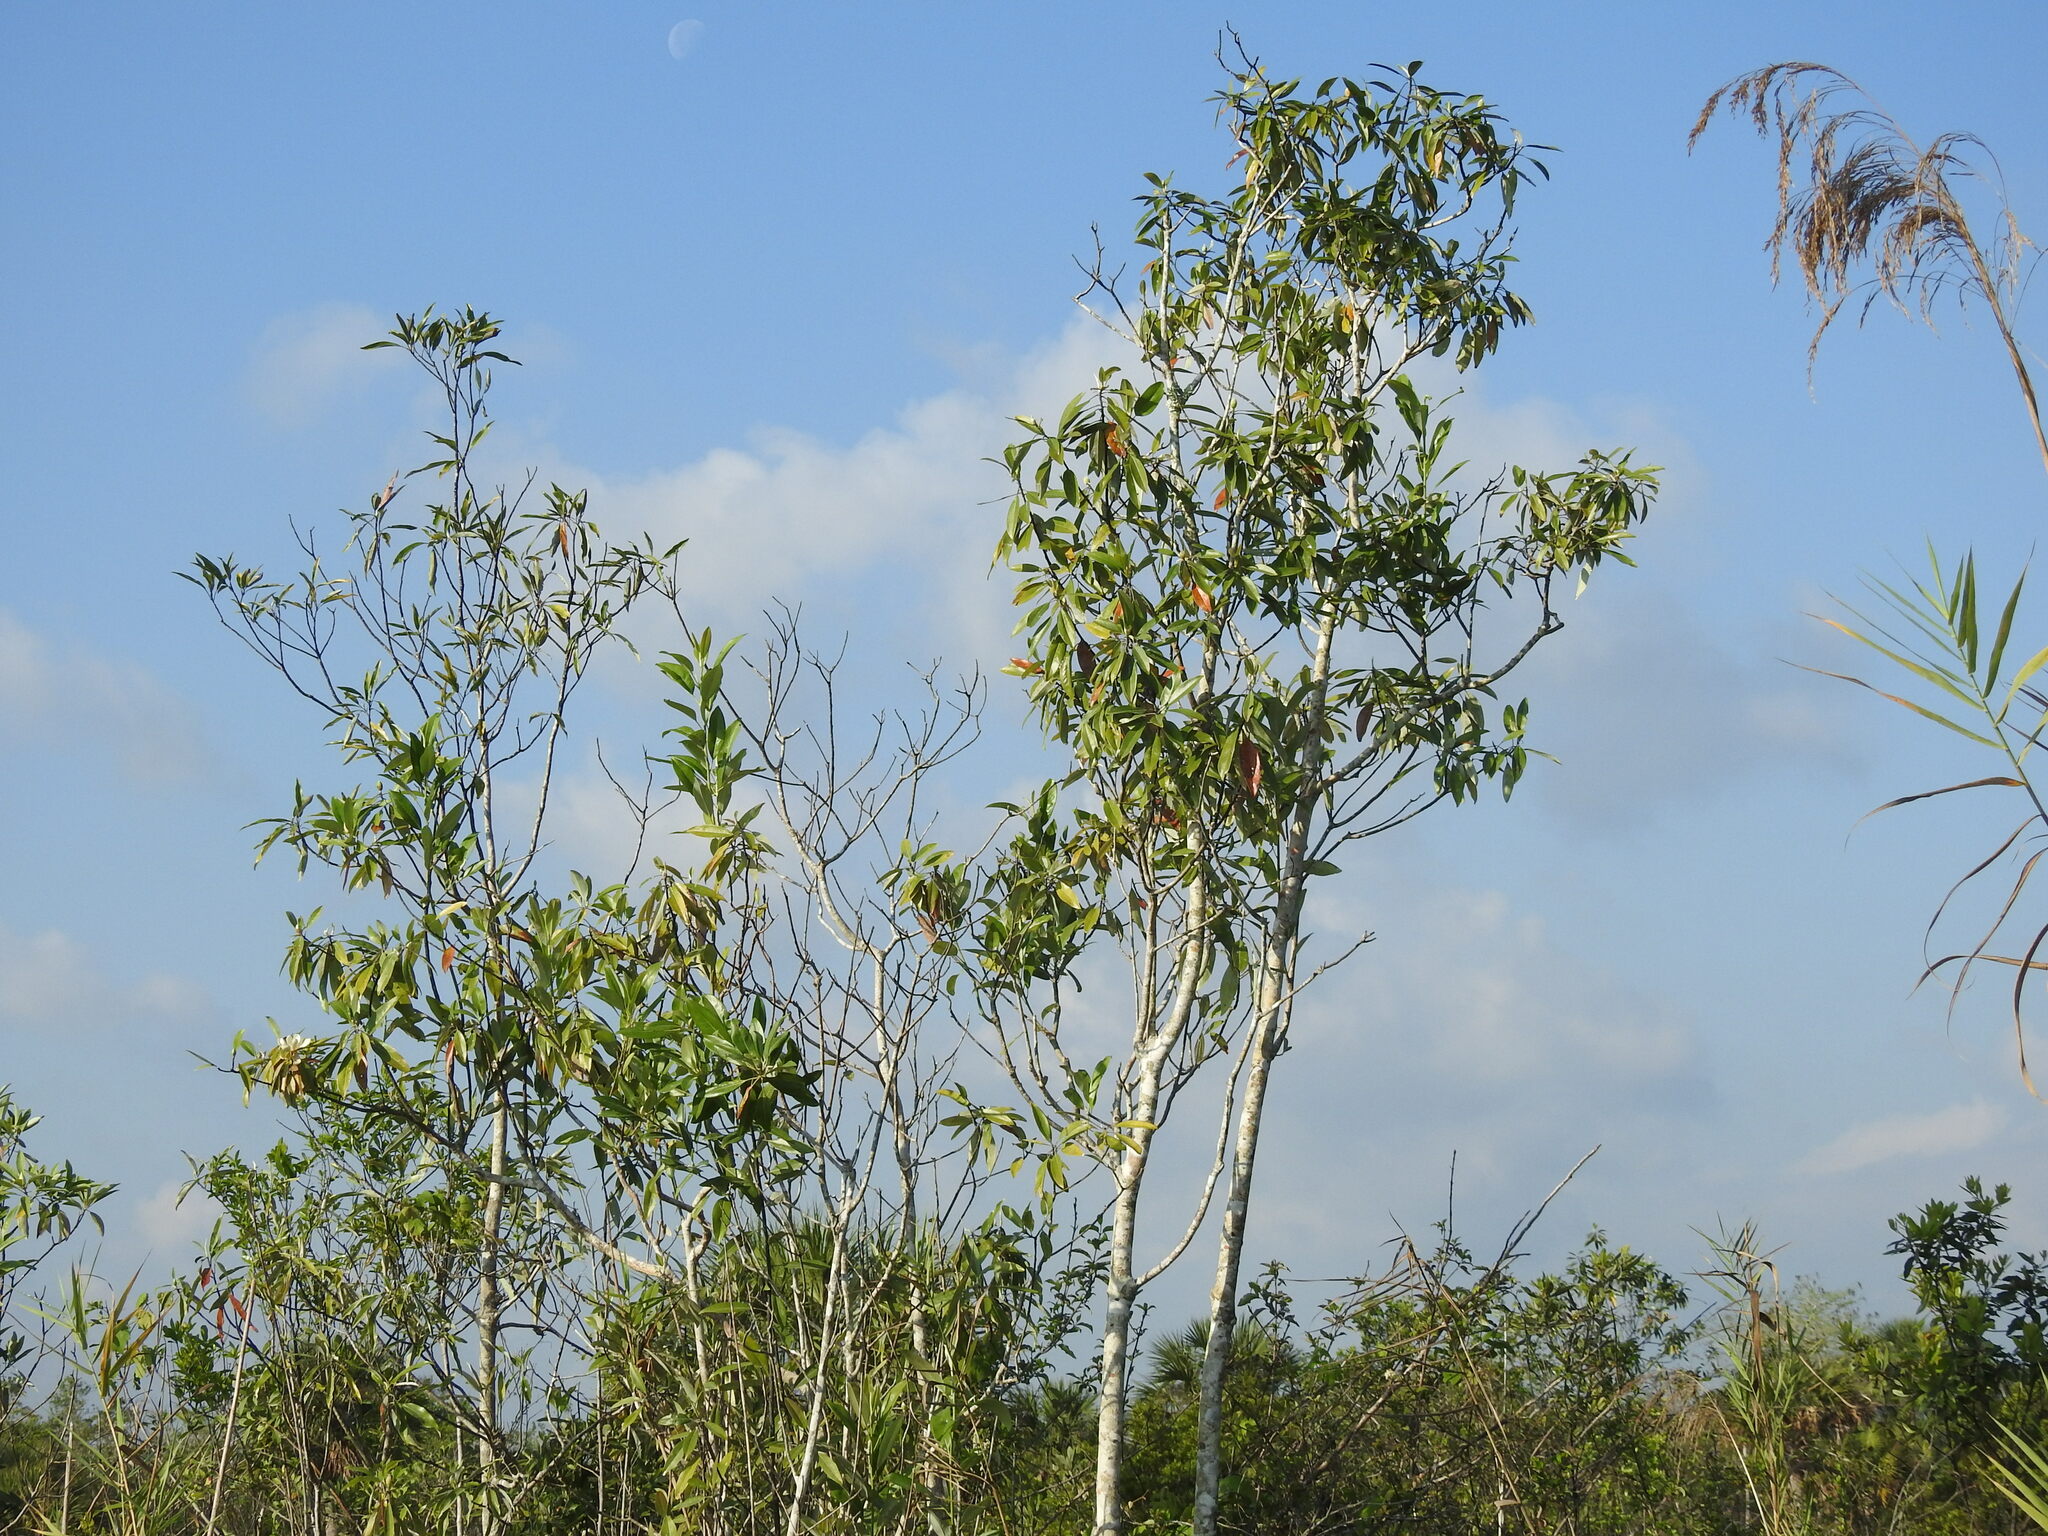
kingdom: Plantae
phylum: Tracheophyta
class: Magnoliopsida
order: Magnoliales
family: Magnoliaceae
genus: Magnolia
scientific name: Magnolia virginiana
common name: Swamp bay
